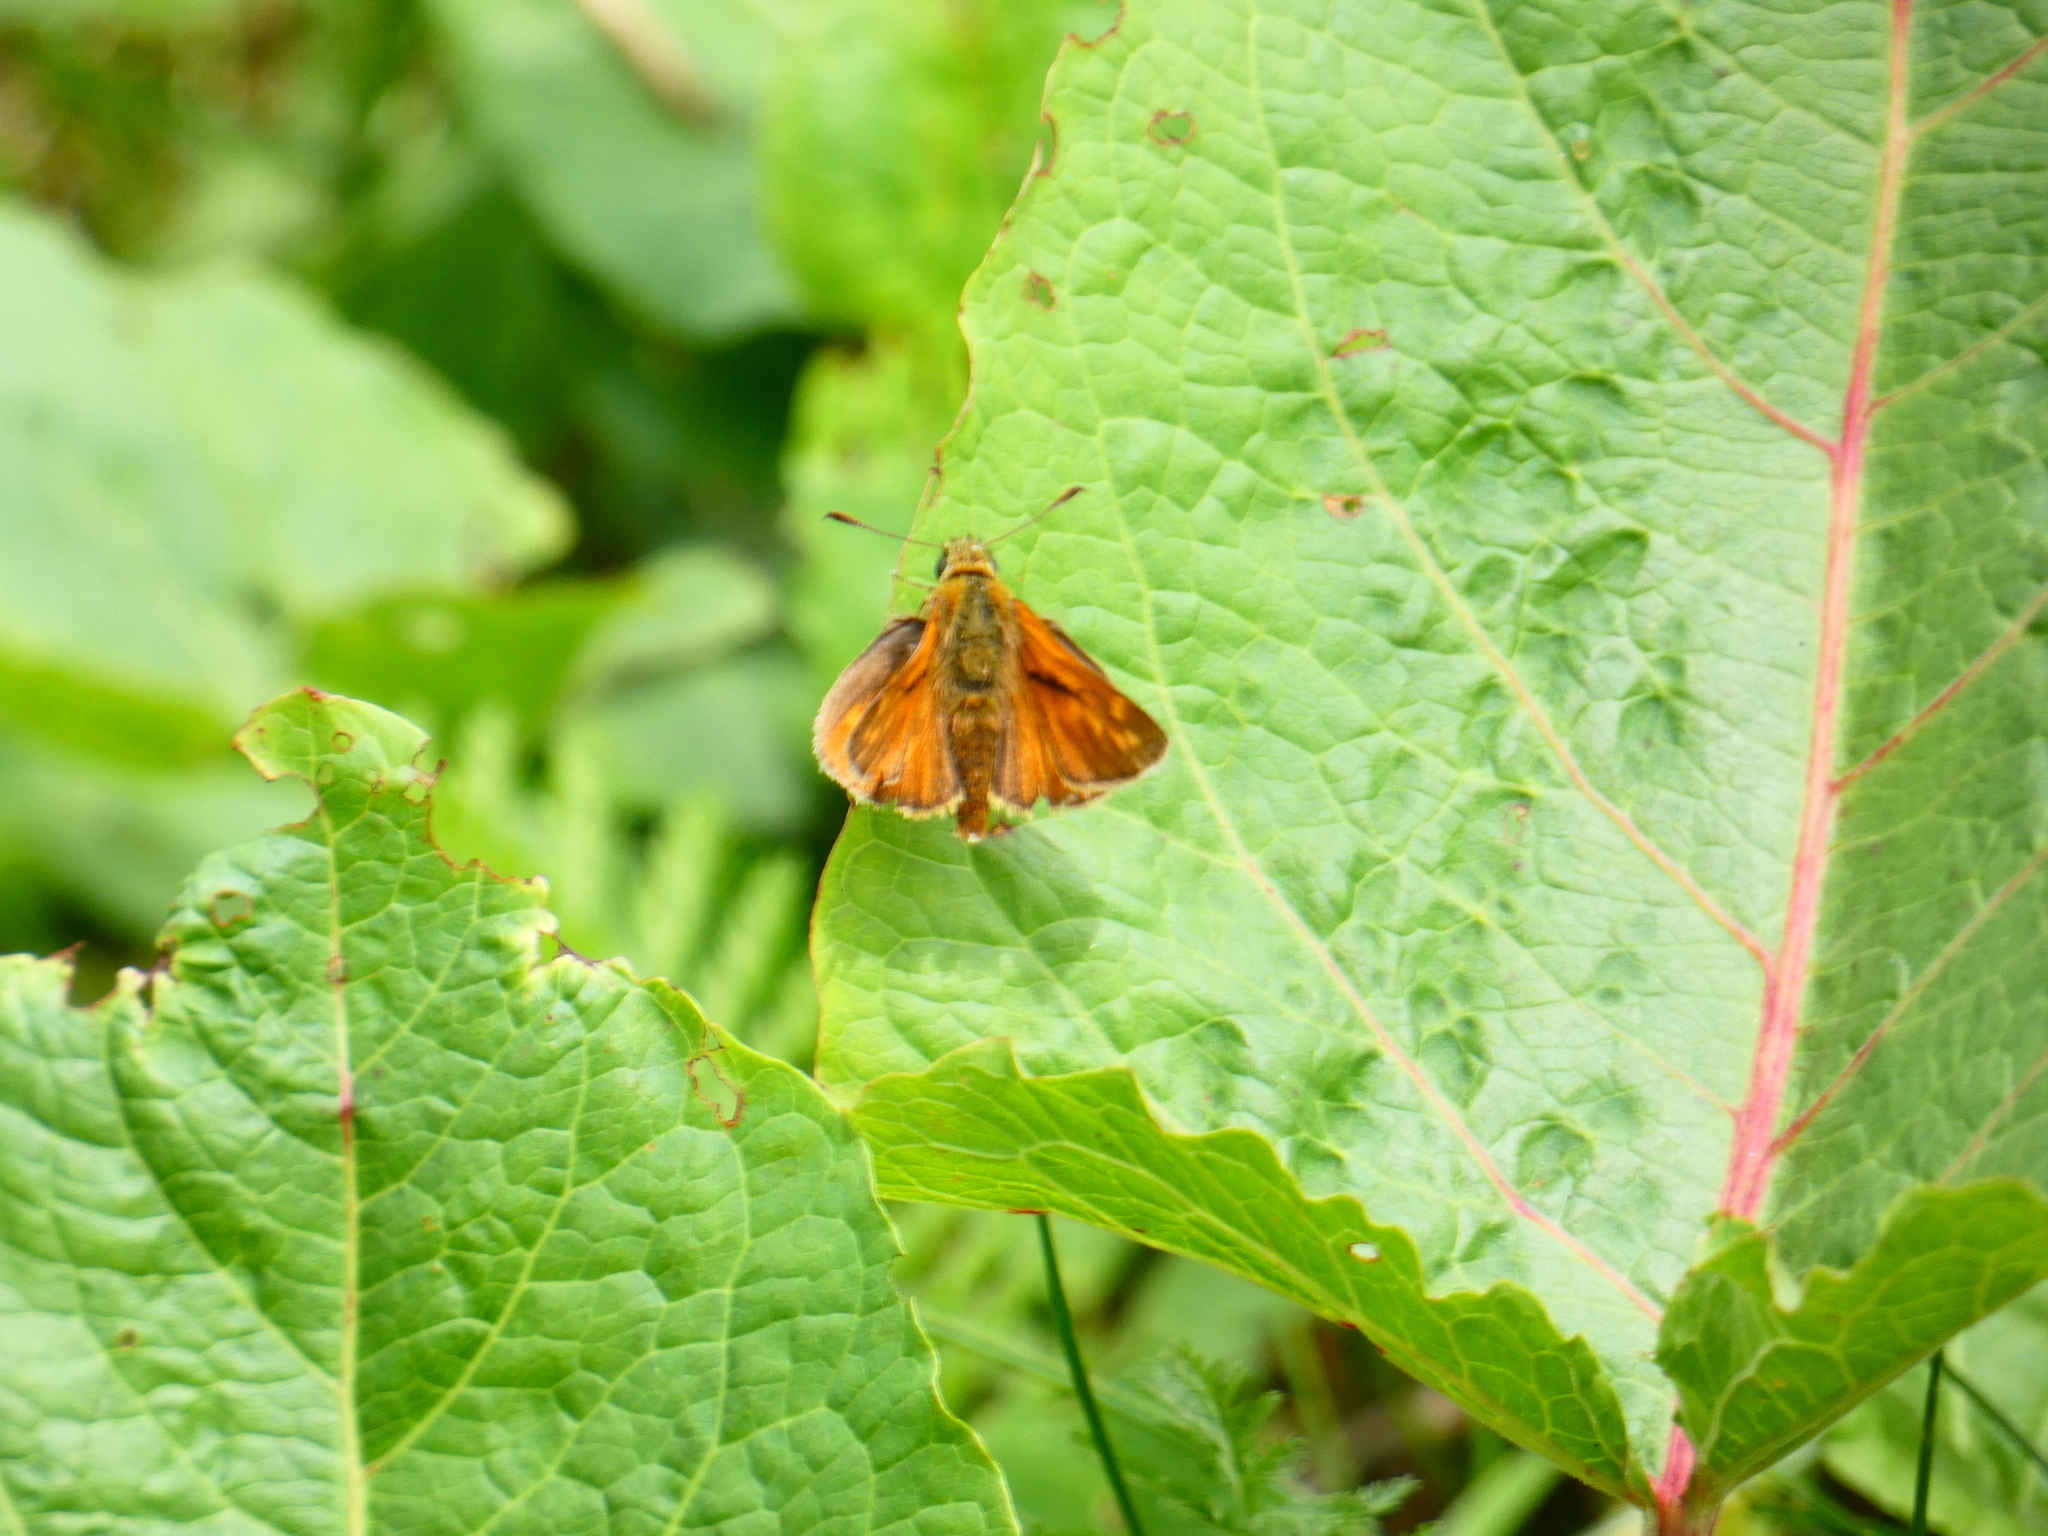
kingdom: Animalia
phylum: Arthropoda
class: Insecta
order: Lepidoptera
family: Hesperiidae
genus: Ochlodes
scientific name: Ochlodes venata
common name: Large skipper
